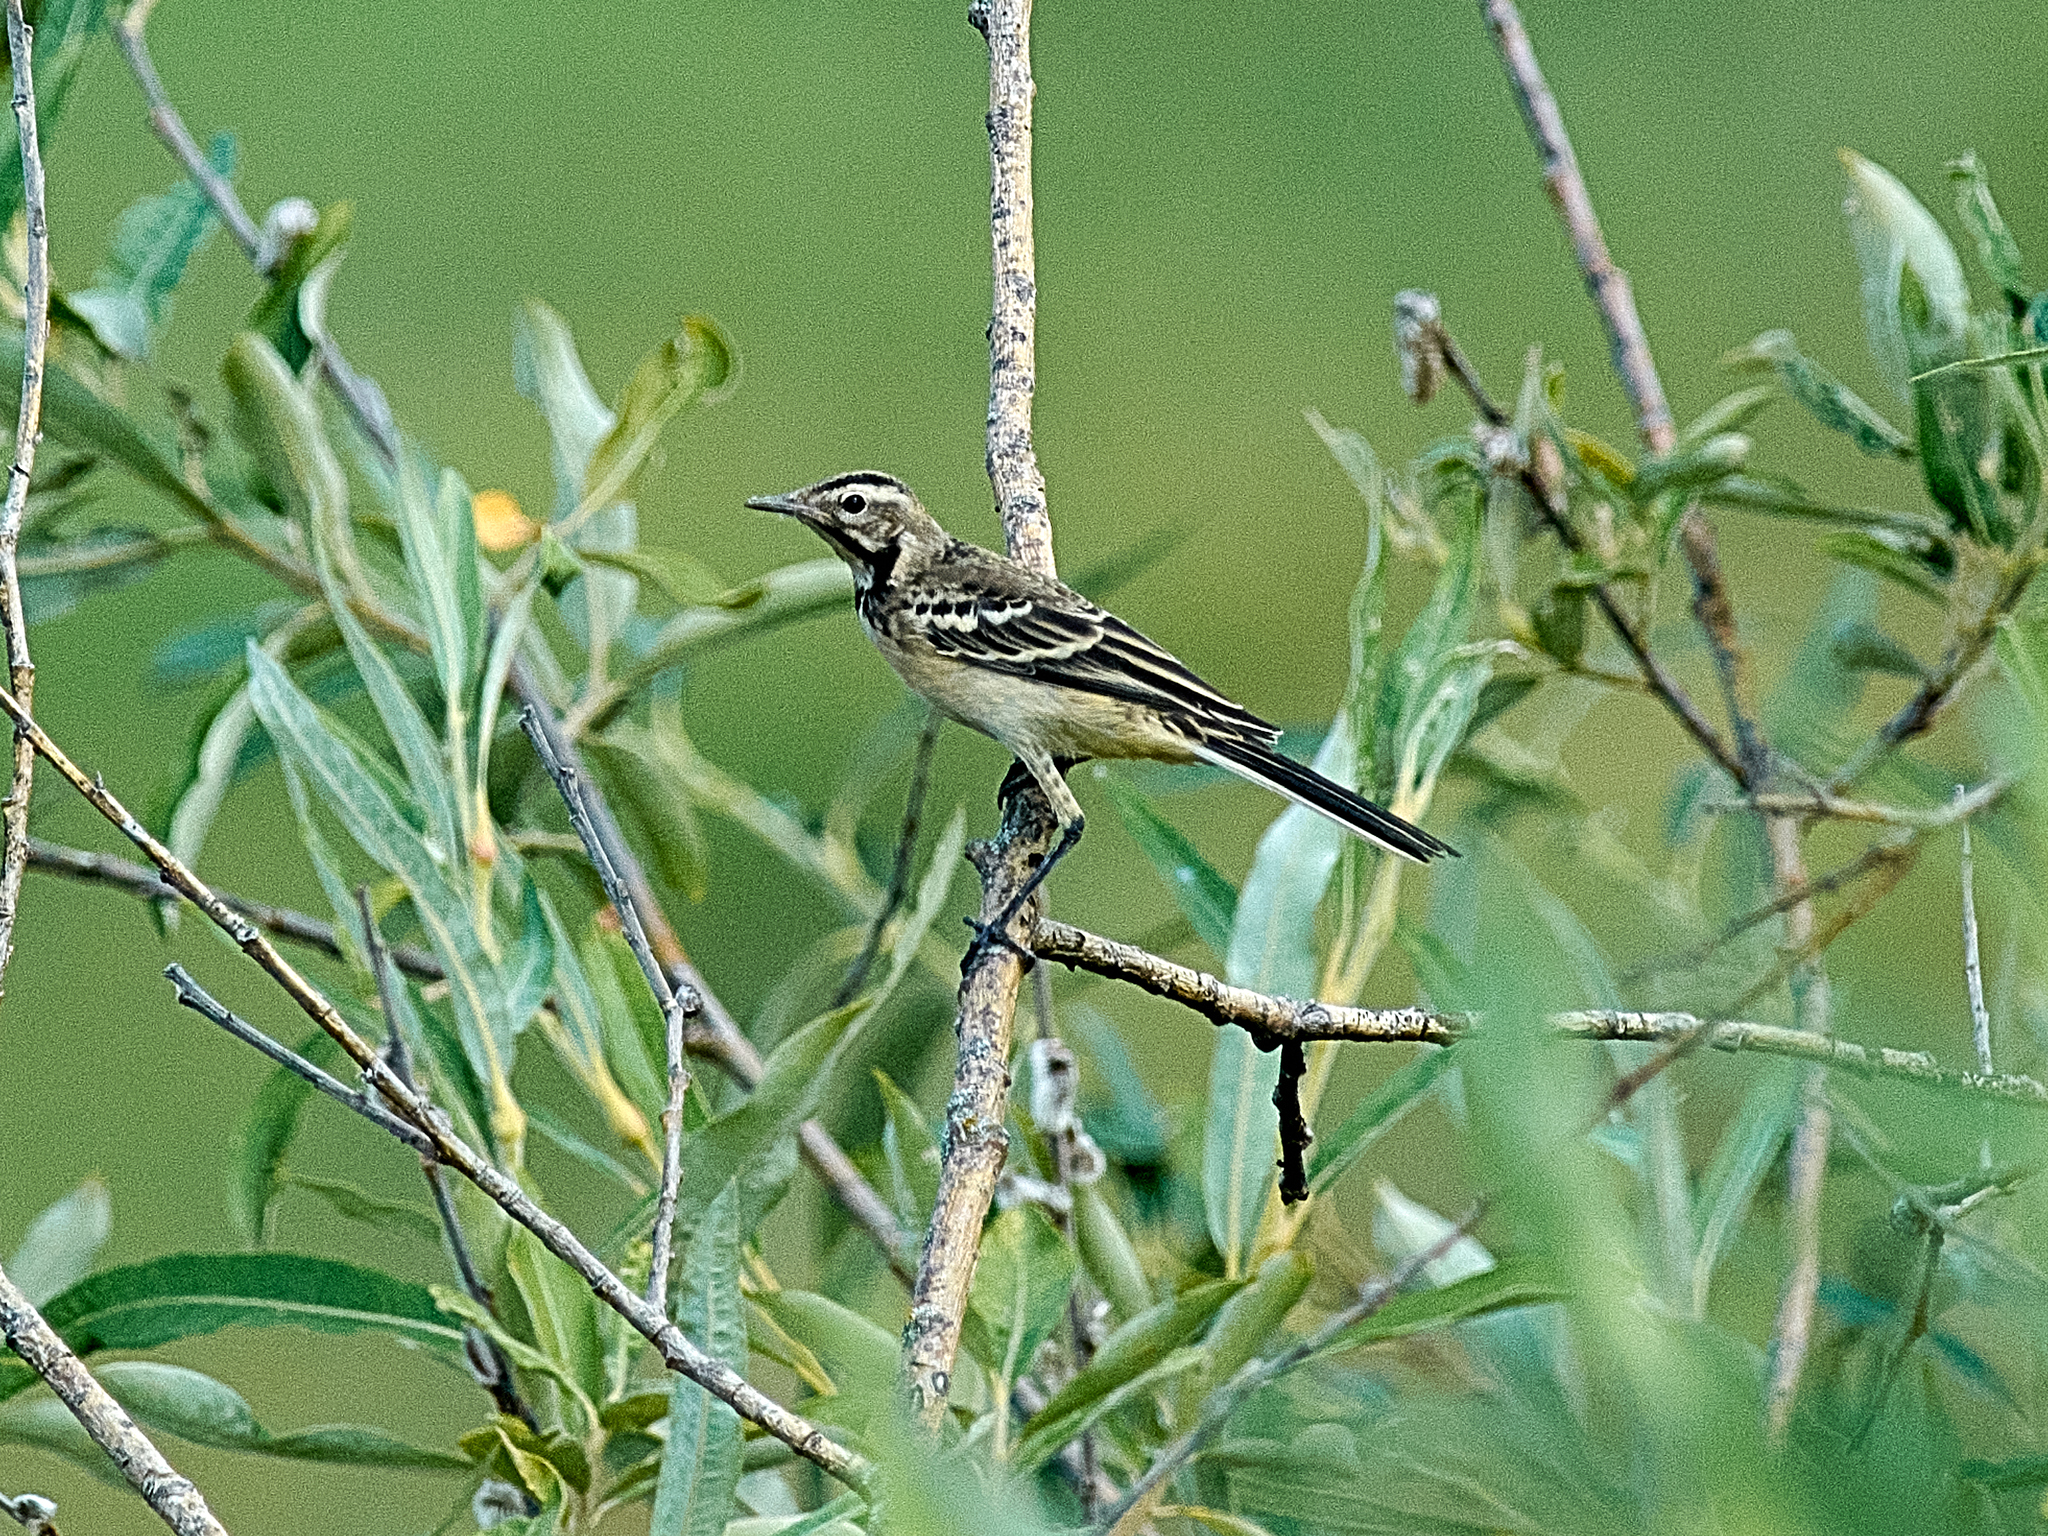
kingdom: Animalia
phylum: Chordata
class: Aves
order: Passeriformes
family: Motacillidae
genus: Motacilla
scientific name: Motacilla flava
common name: Western yellow wagtail
